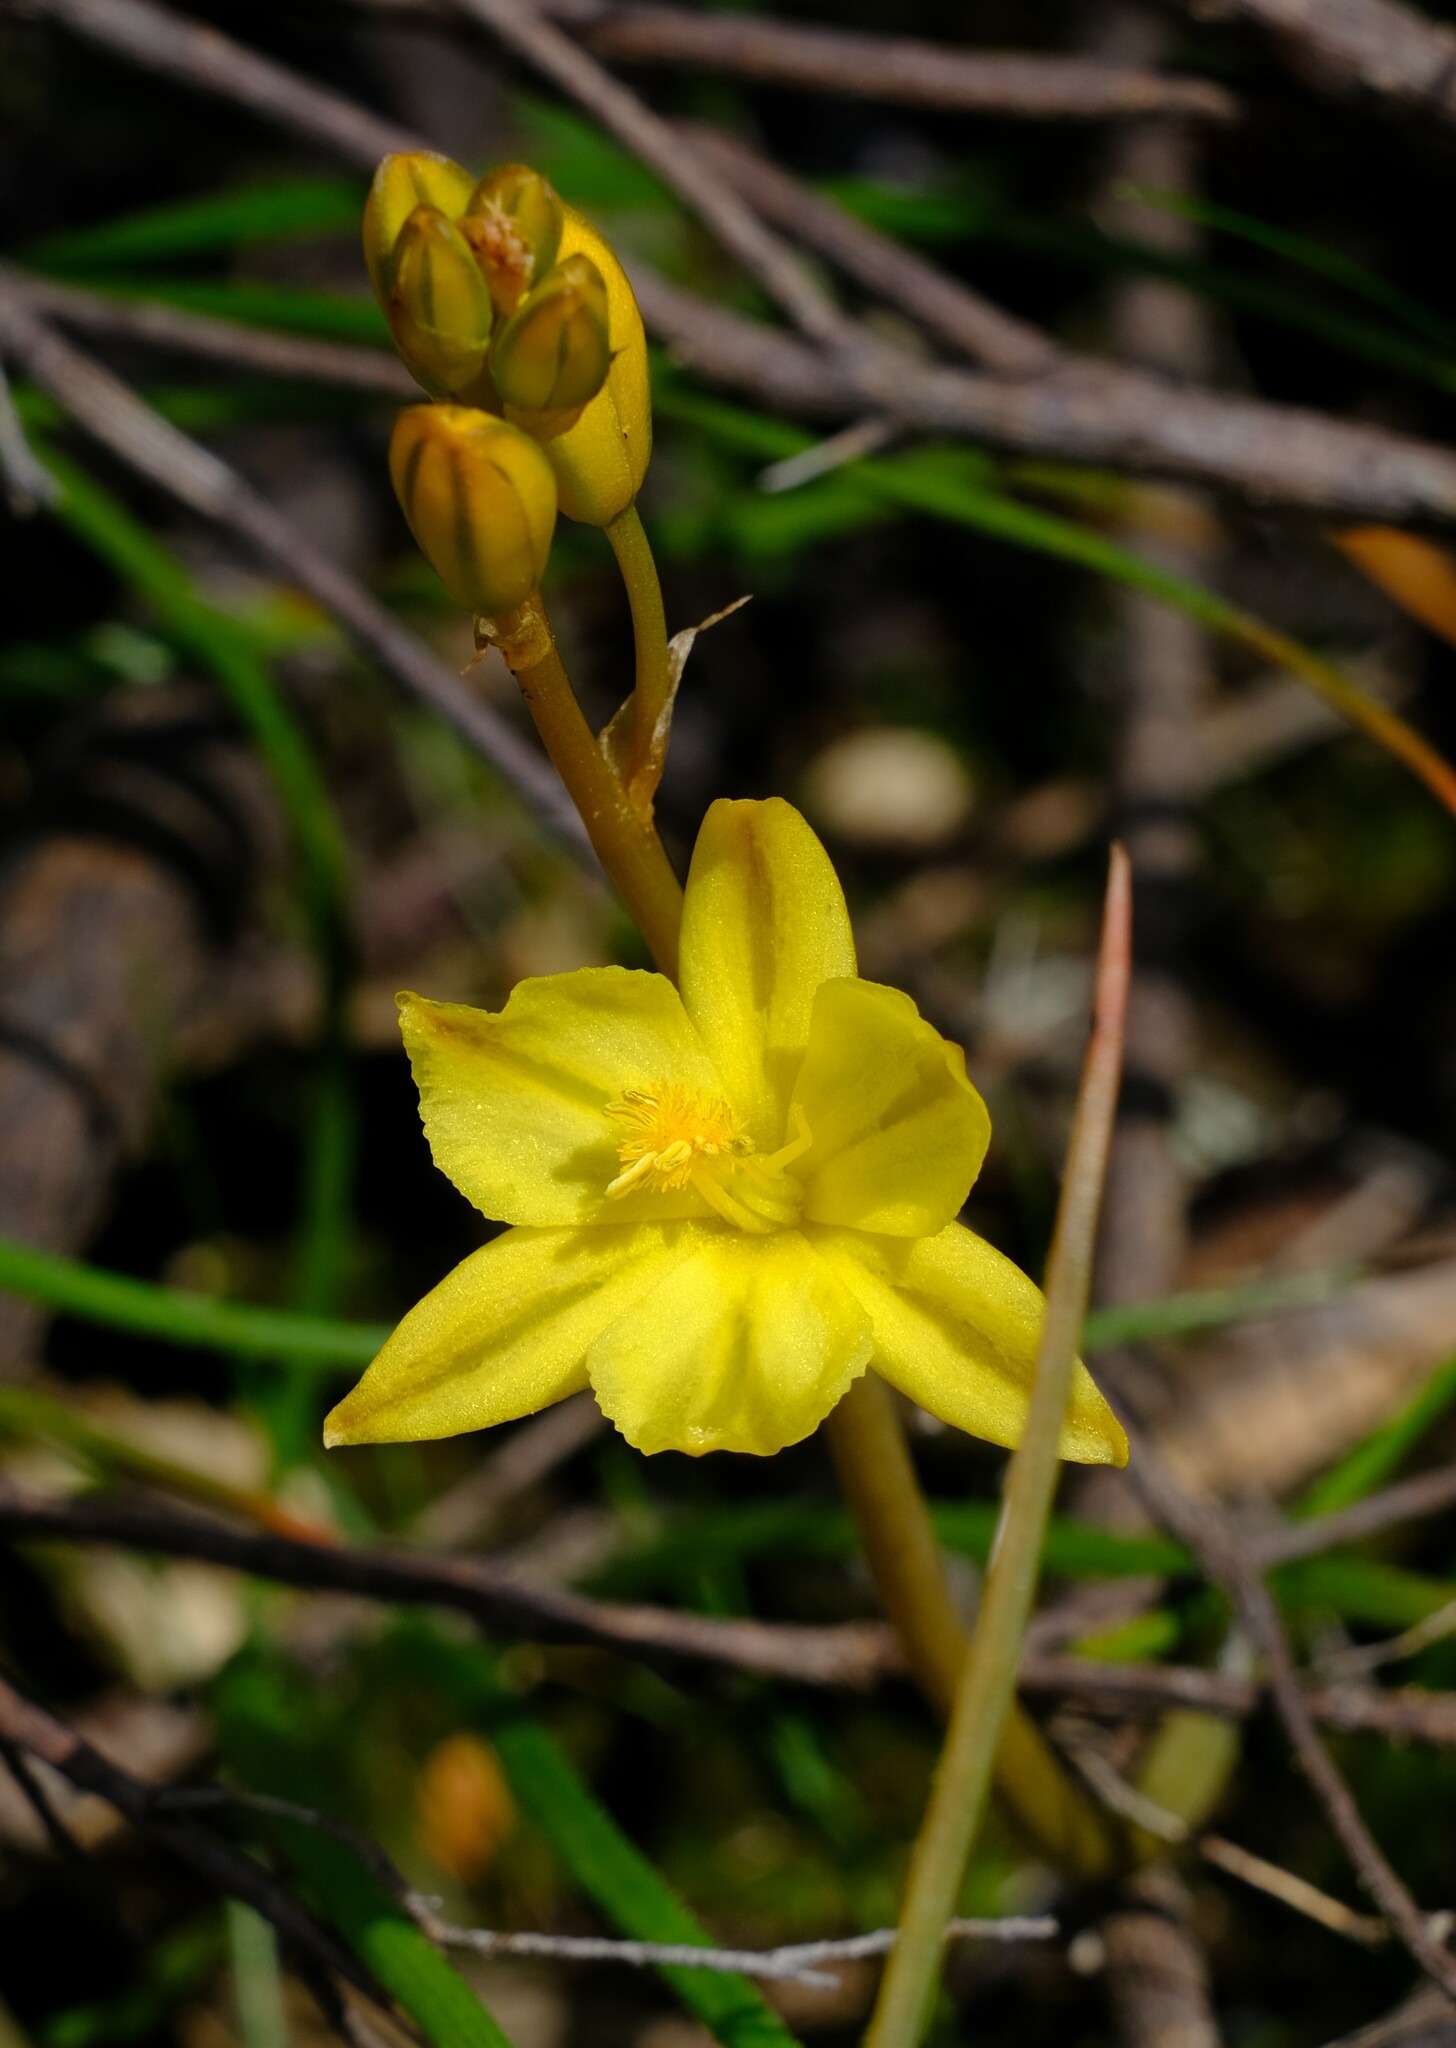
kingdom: Plantae
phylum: Tracheophyta
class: Liliopsida
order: Asparagales
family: Asphodelaceae
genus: Bulbine
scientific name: Bulbine bulbosa
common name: Golden-lily
